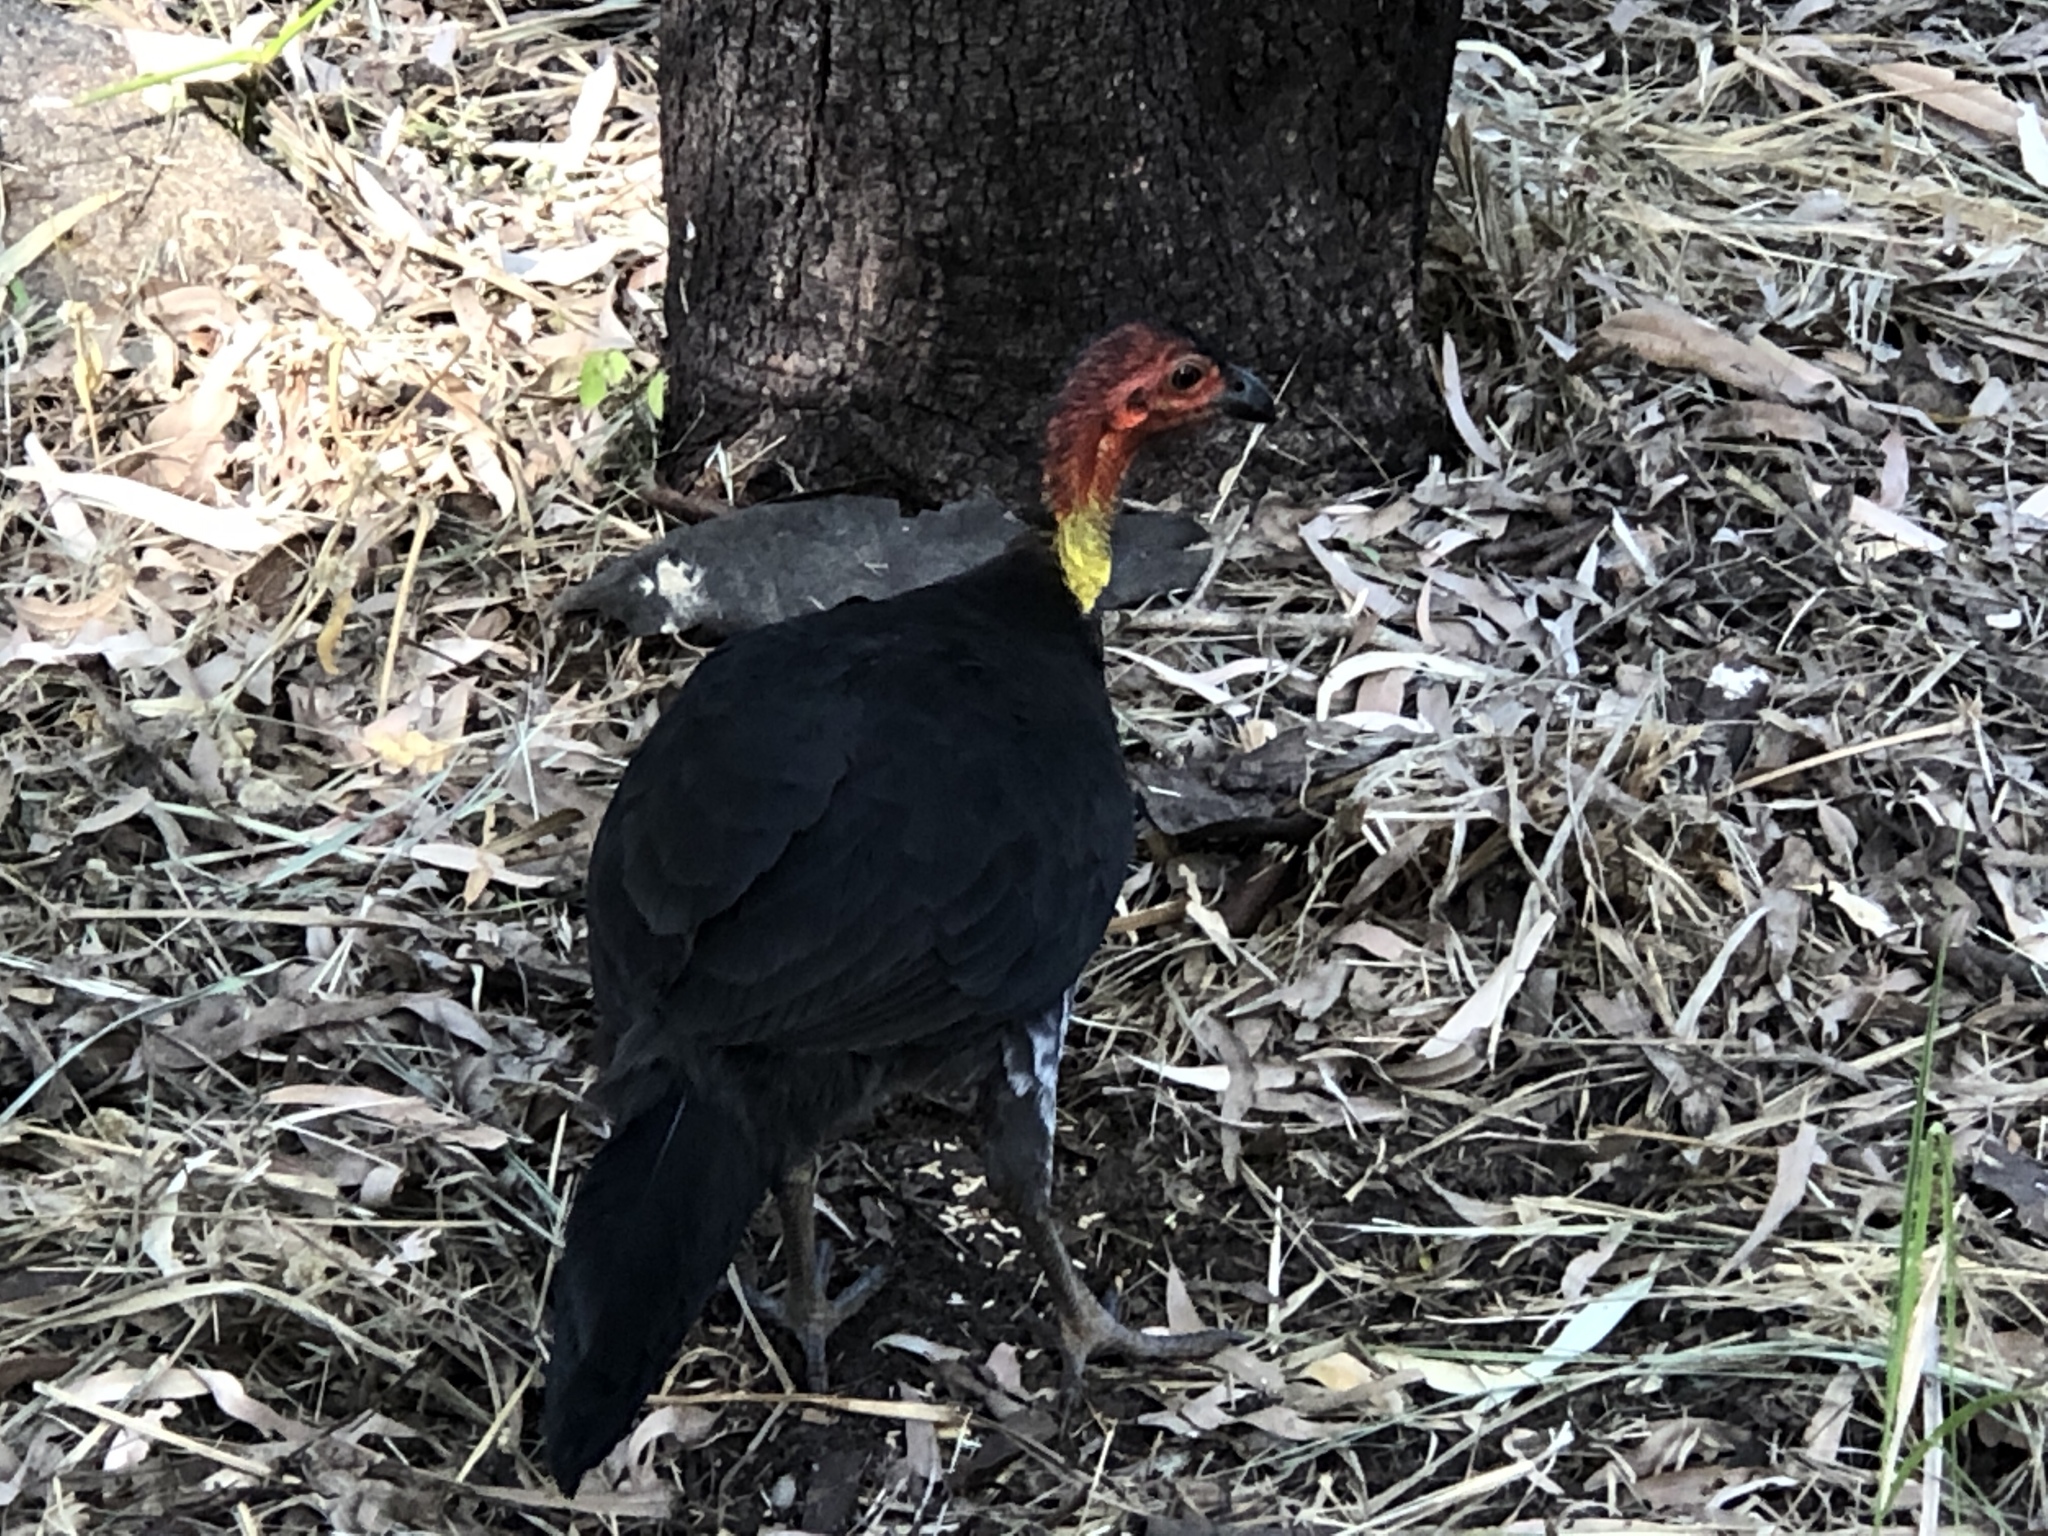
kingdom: Animalia
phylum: Chordata
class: Aves
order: Galliformes
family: Megapodiidae
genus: Alectura
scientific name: Alectura lathami
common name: Australian brushturkey
